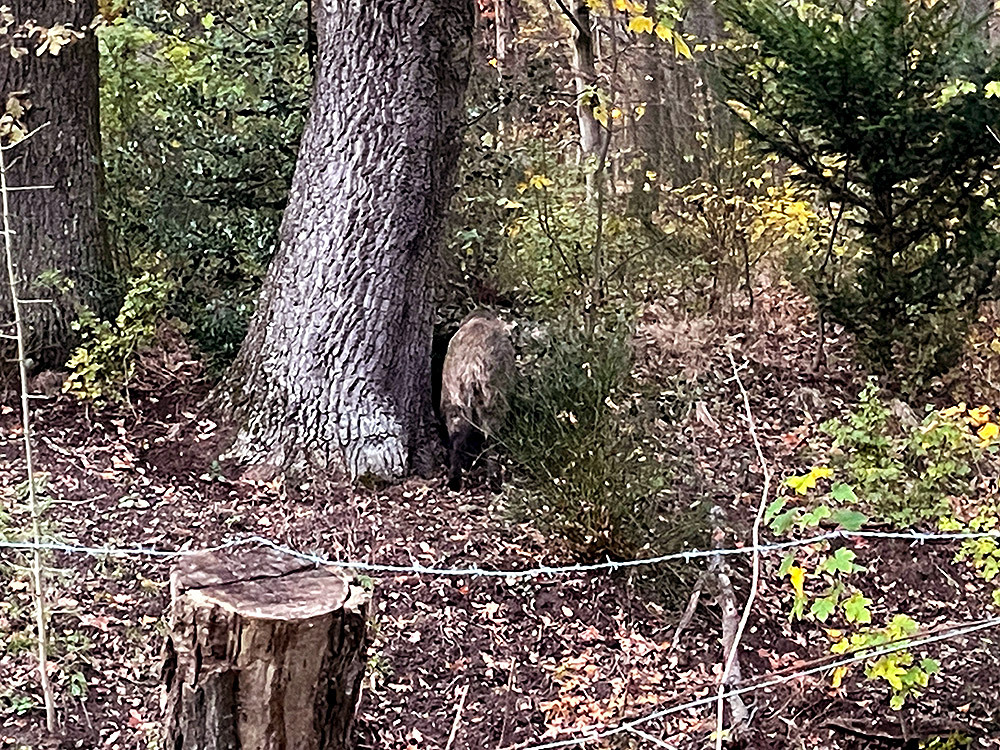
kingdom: Animalia
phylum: Chordata
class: Mammalia
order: Artiodactyla
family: Suidae
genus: Sus
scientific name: Sus scrofa
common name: Wild boar
